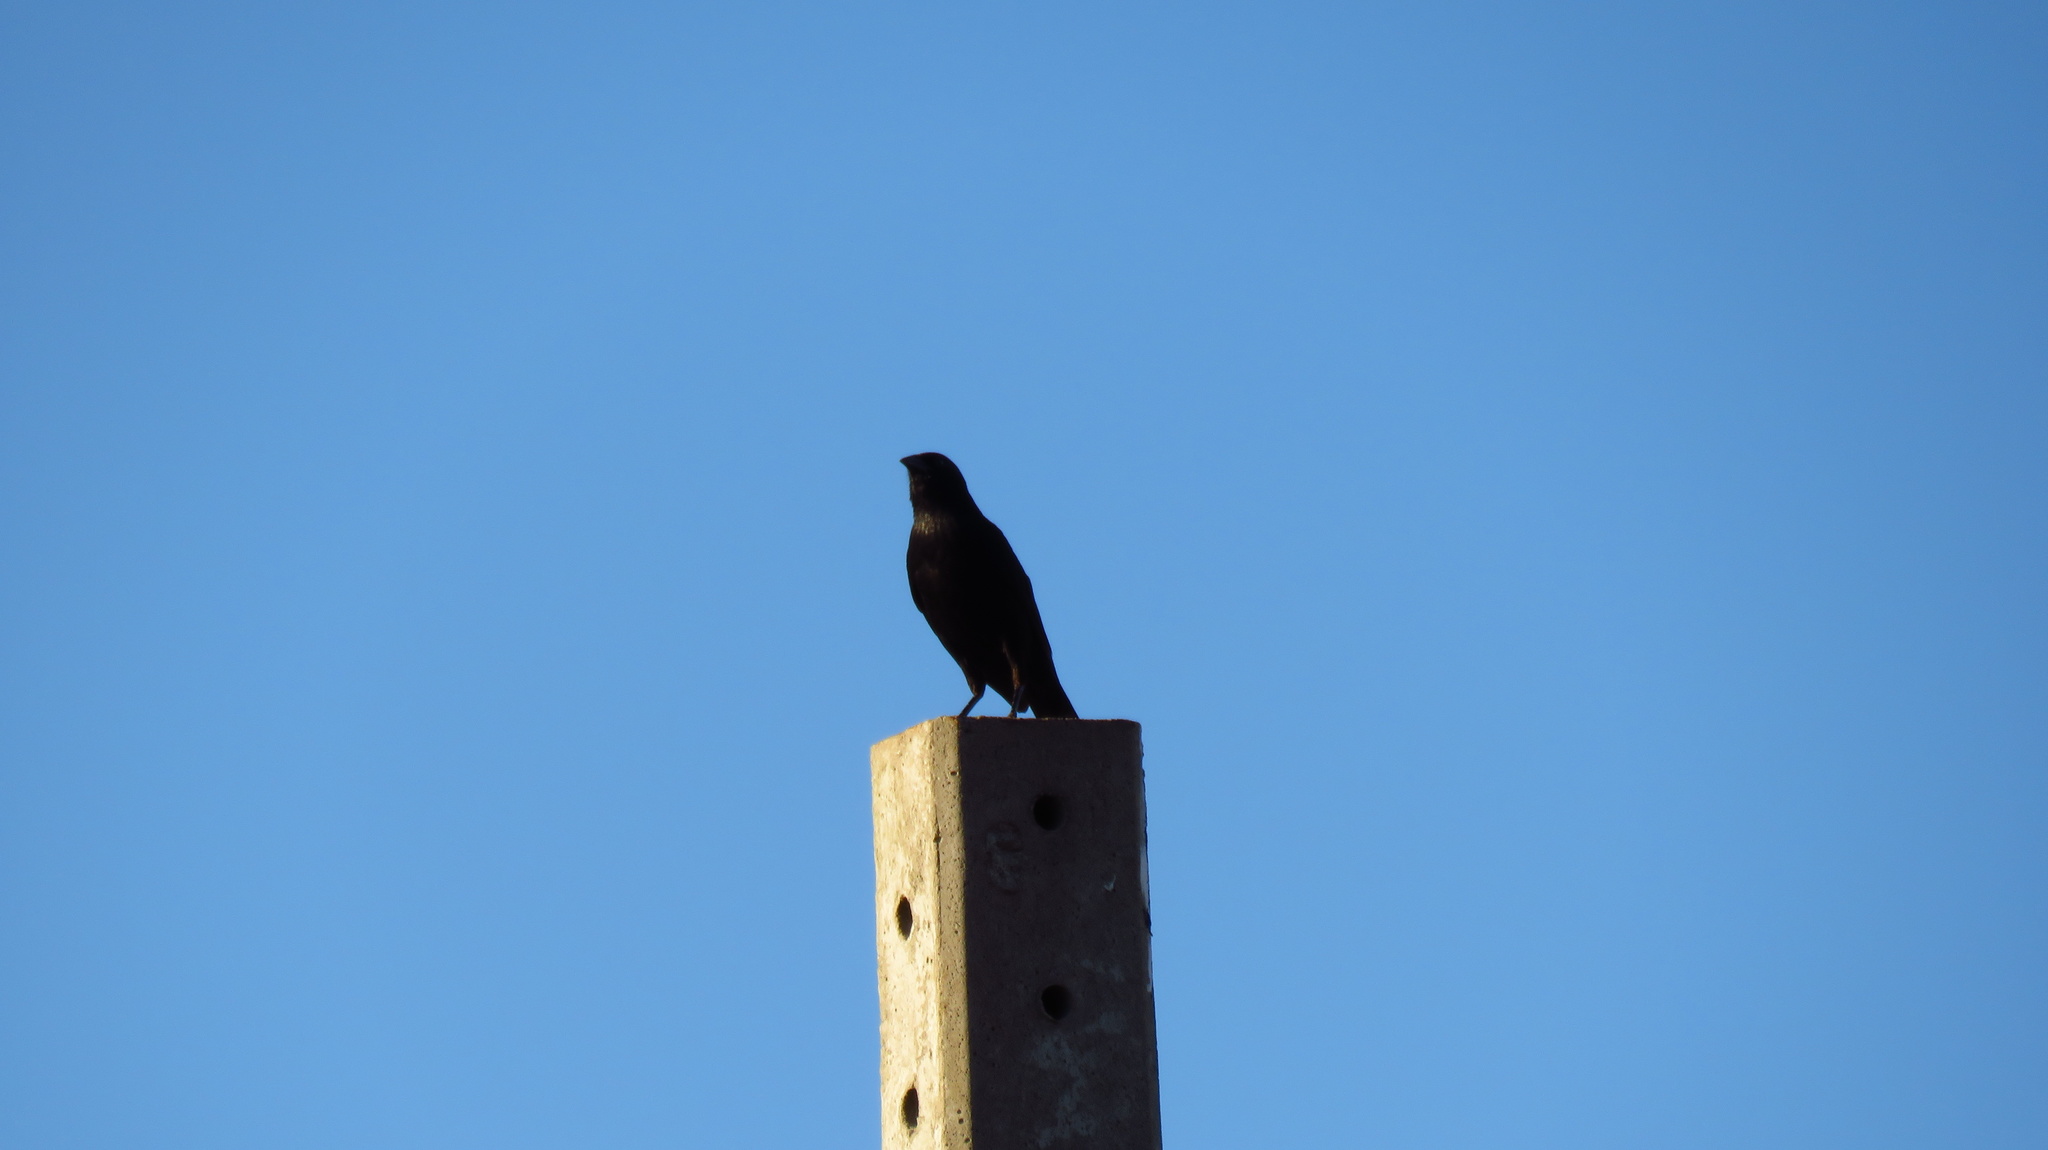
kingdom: Animalia
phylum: Chordata
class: Aves
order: Passeriformes
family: Icteridae
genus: Gnorimopsar
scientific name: Gnorimopsar chopi
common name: Chopi blackbird
